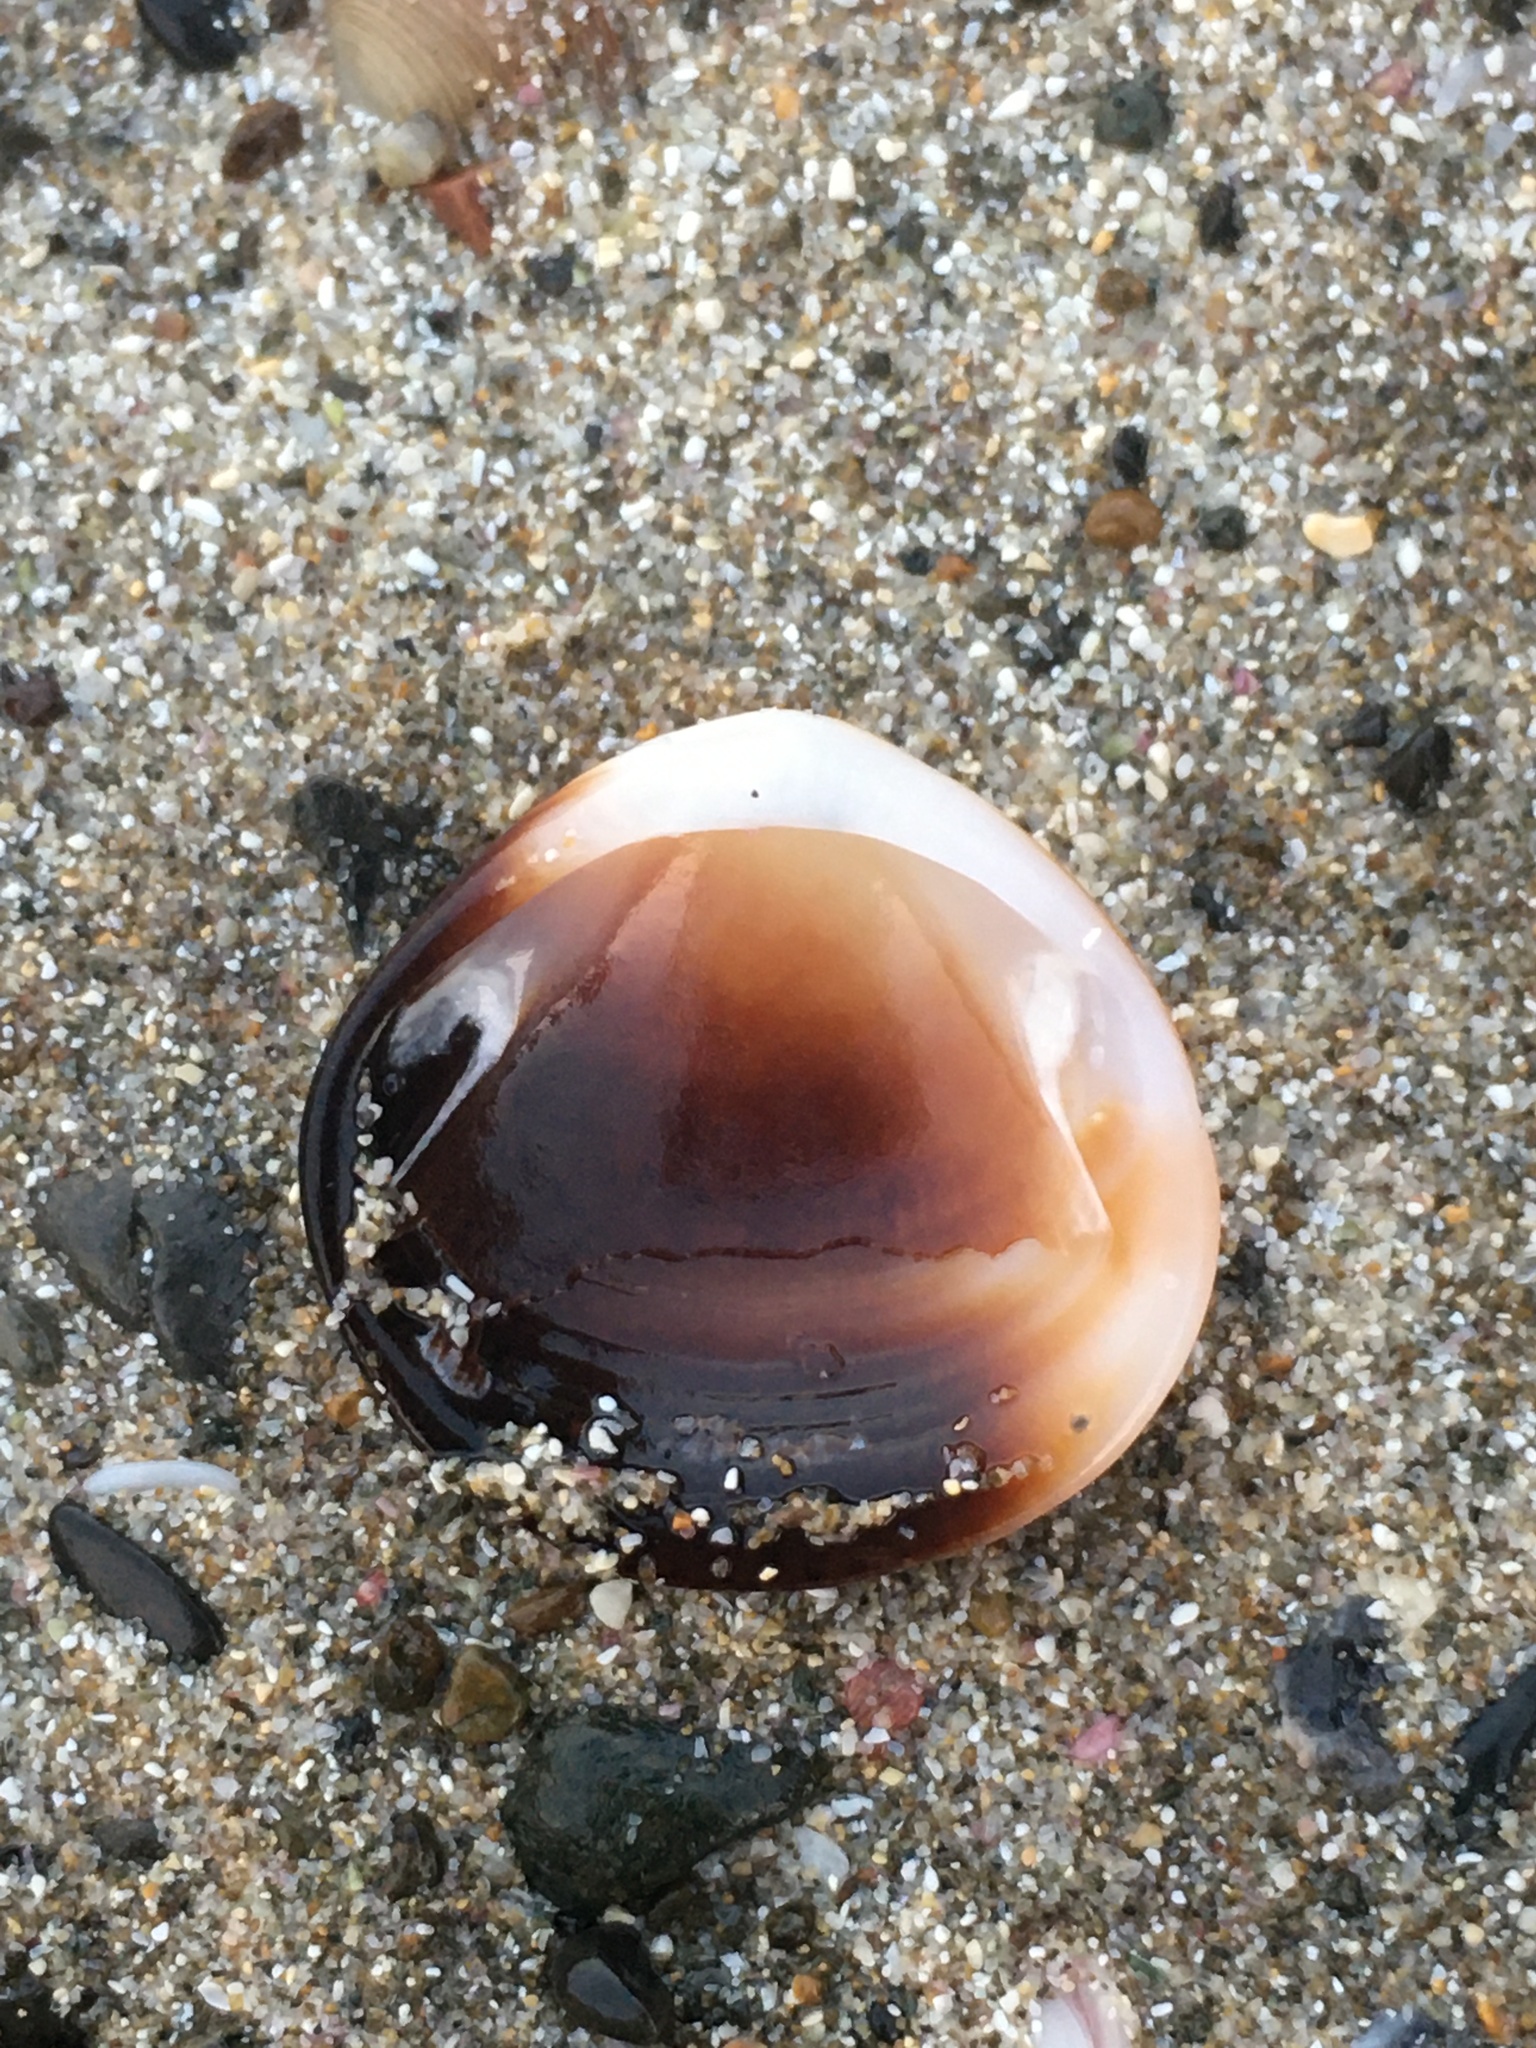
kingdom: Animalia
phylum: Mollusca
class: Bivalvia
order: Arcida
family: Glycymerididae
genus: Glycymeris
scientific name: Glycymeris modesta
